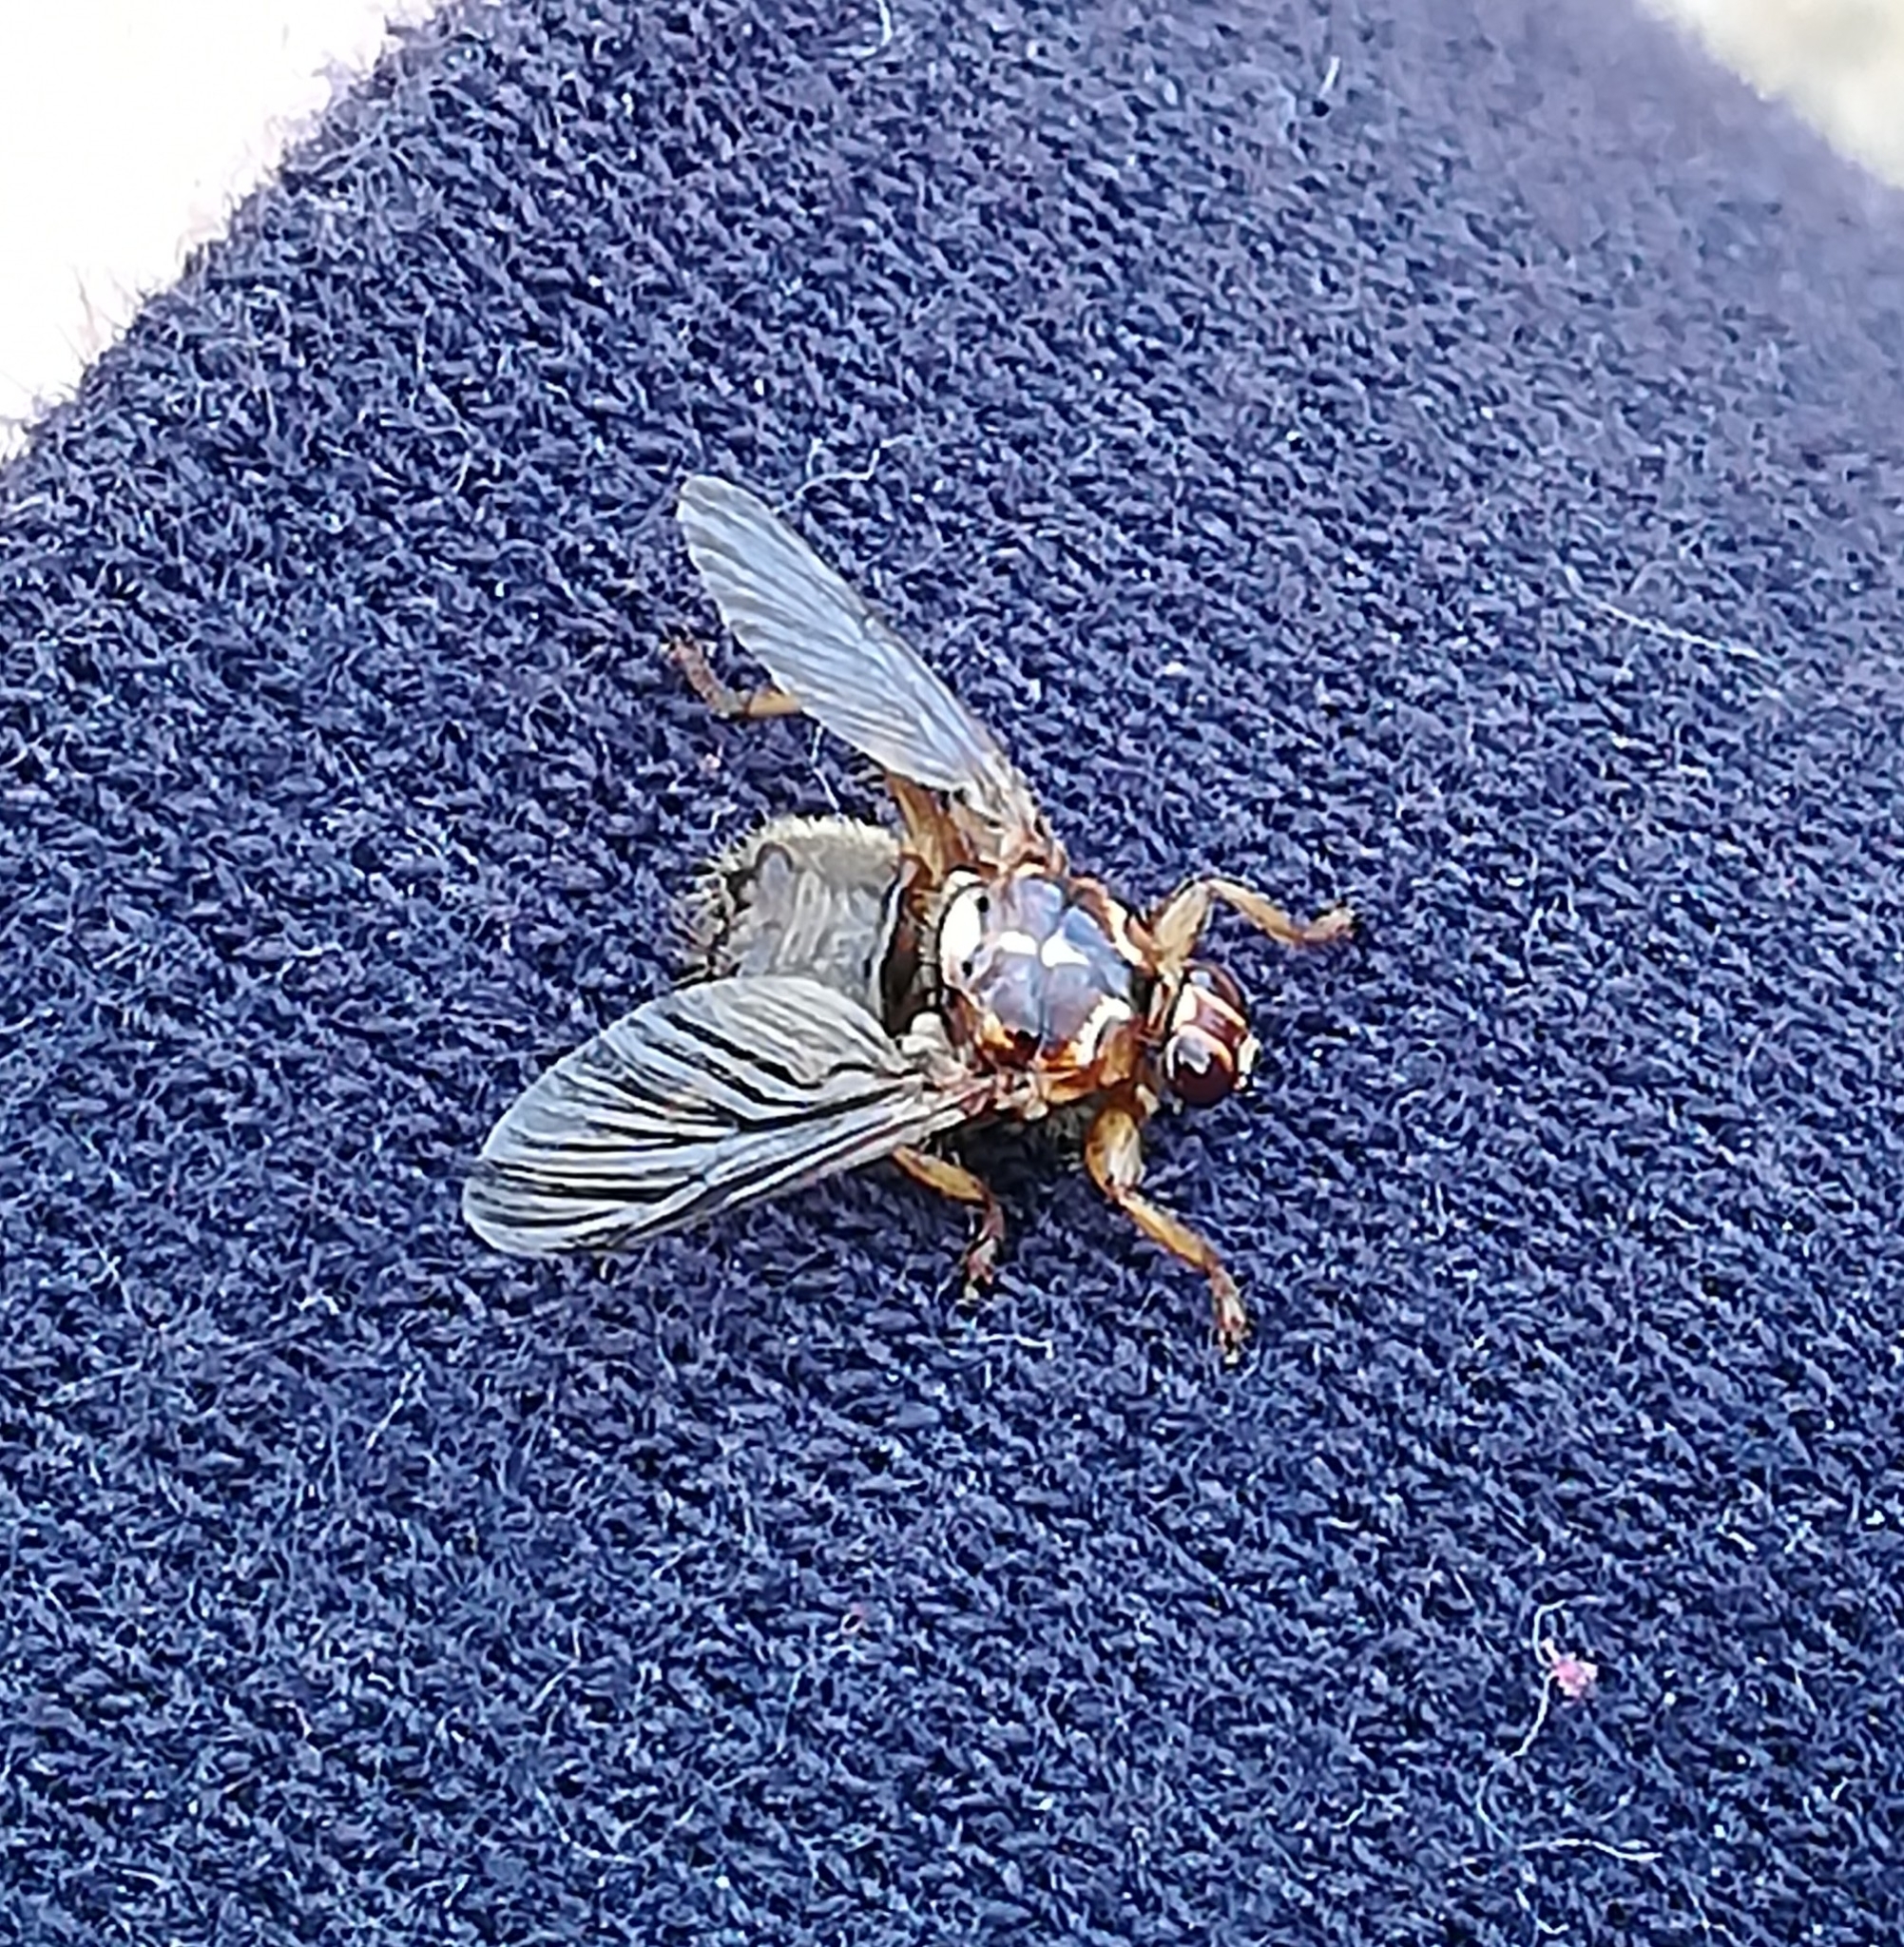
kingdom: Animalia
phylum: Arthropoda
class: Insecta
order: Diptera
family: Hippoboscidae
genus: Hippobosca
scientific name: Hippobosca equina
